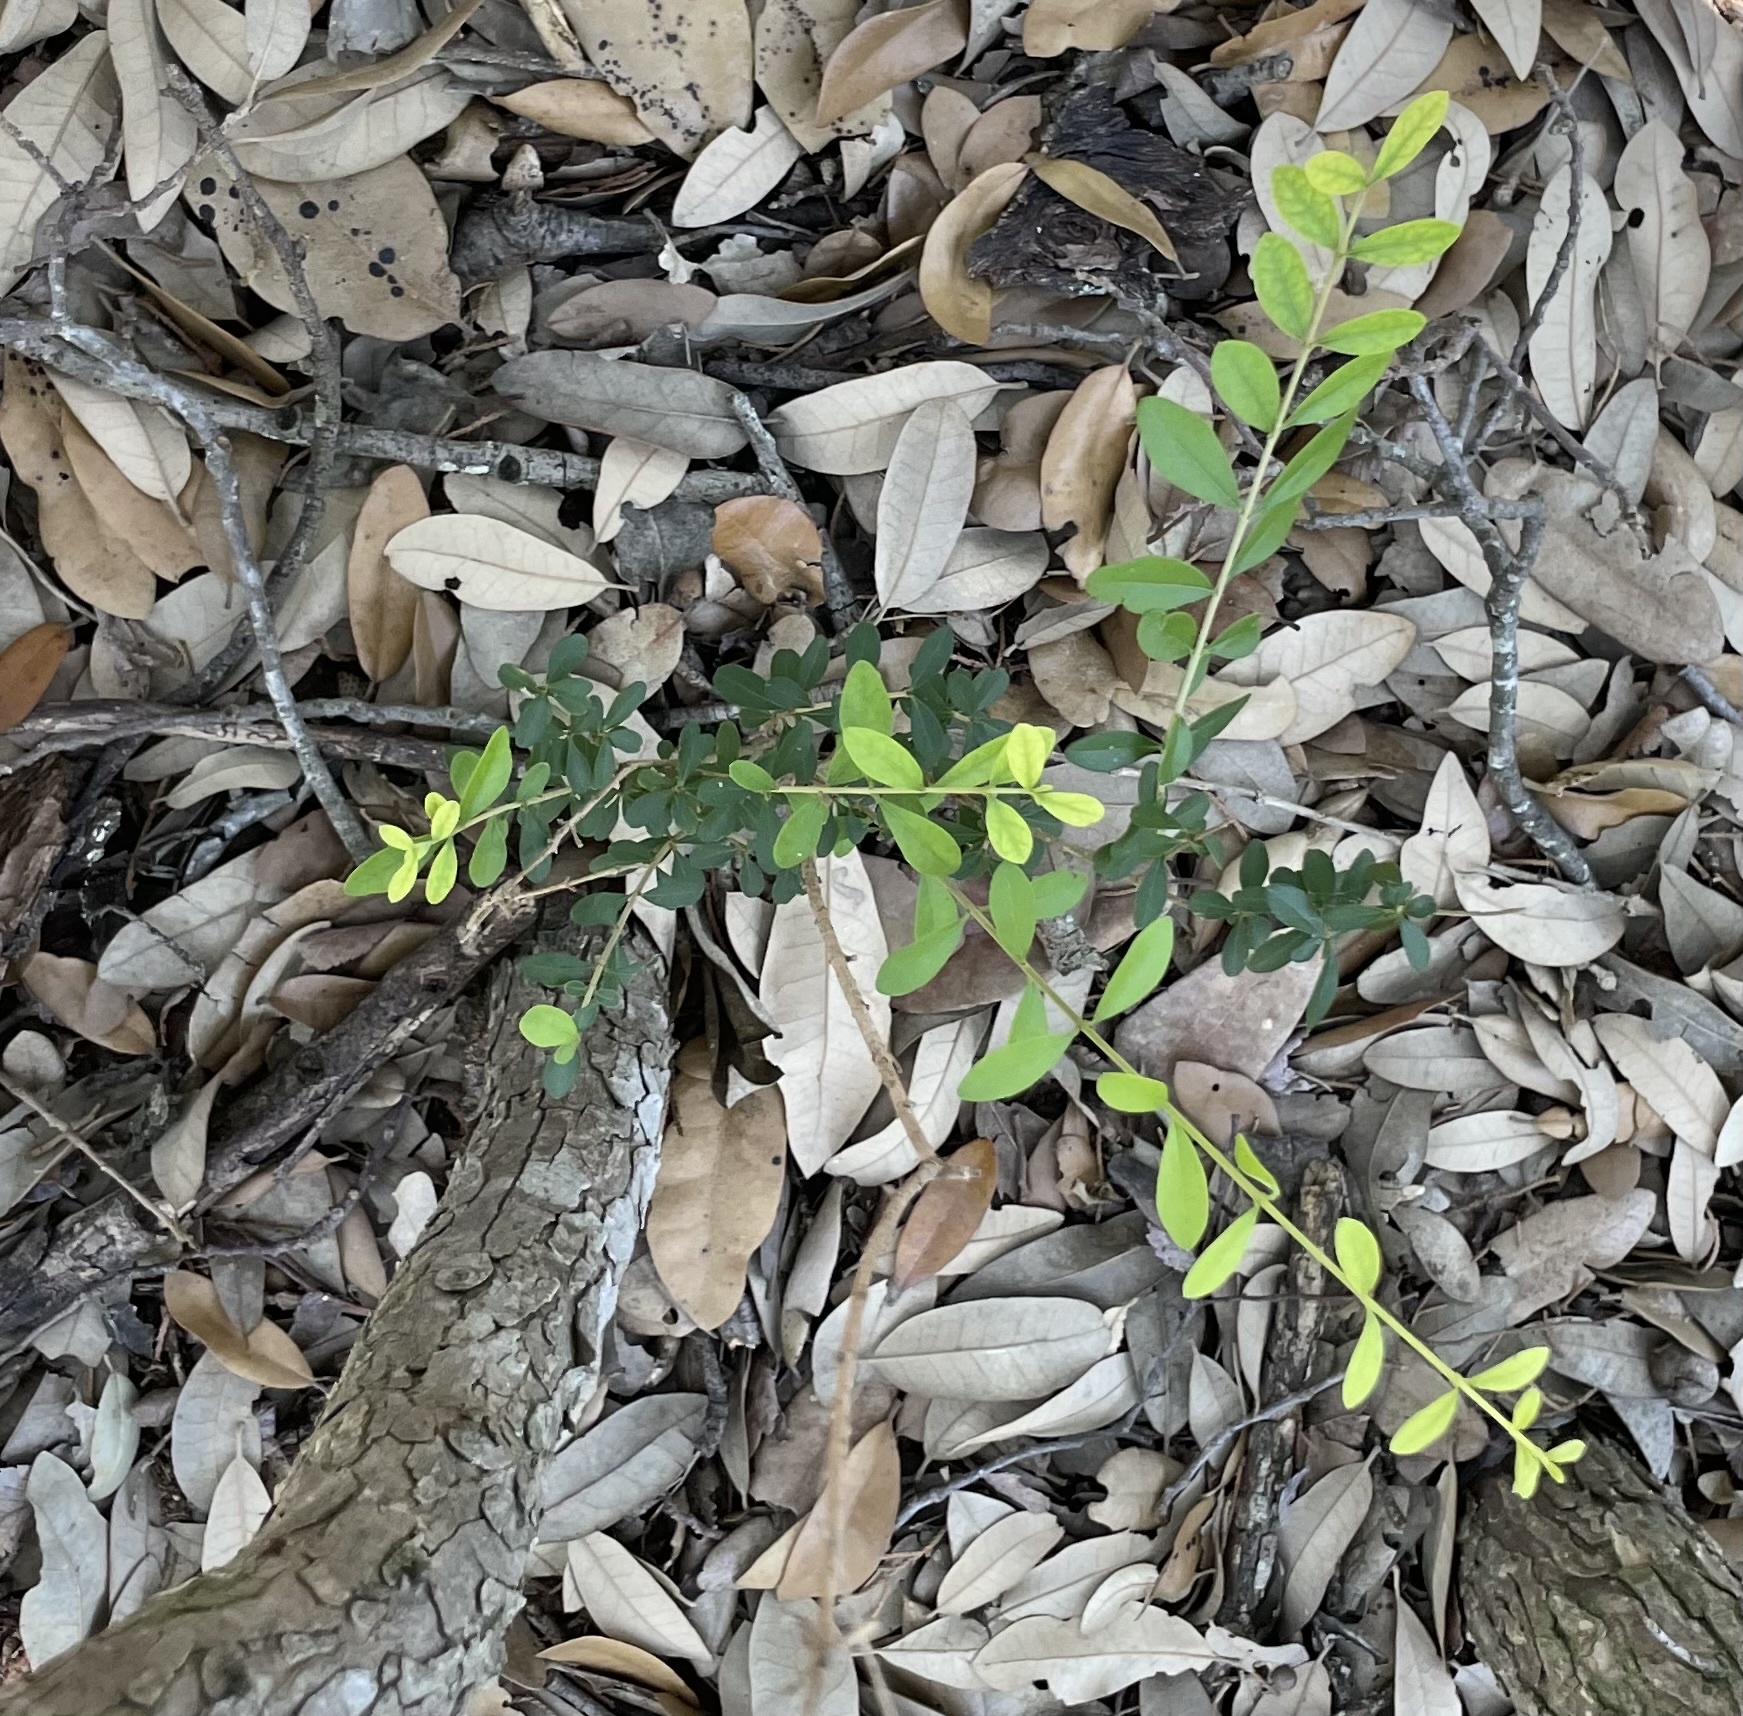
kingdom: Plantae
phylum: Tracheophyta
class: Magnoliopsida
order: Lamiales
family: Oleaceae
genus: Ligustrum
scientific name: Ligustrum quihoui
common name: Waxyleaf privet
